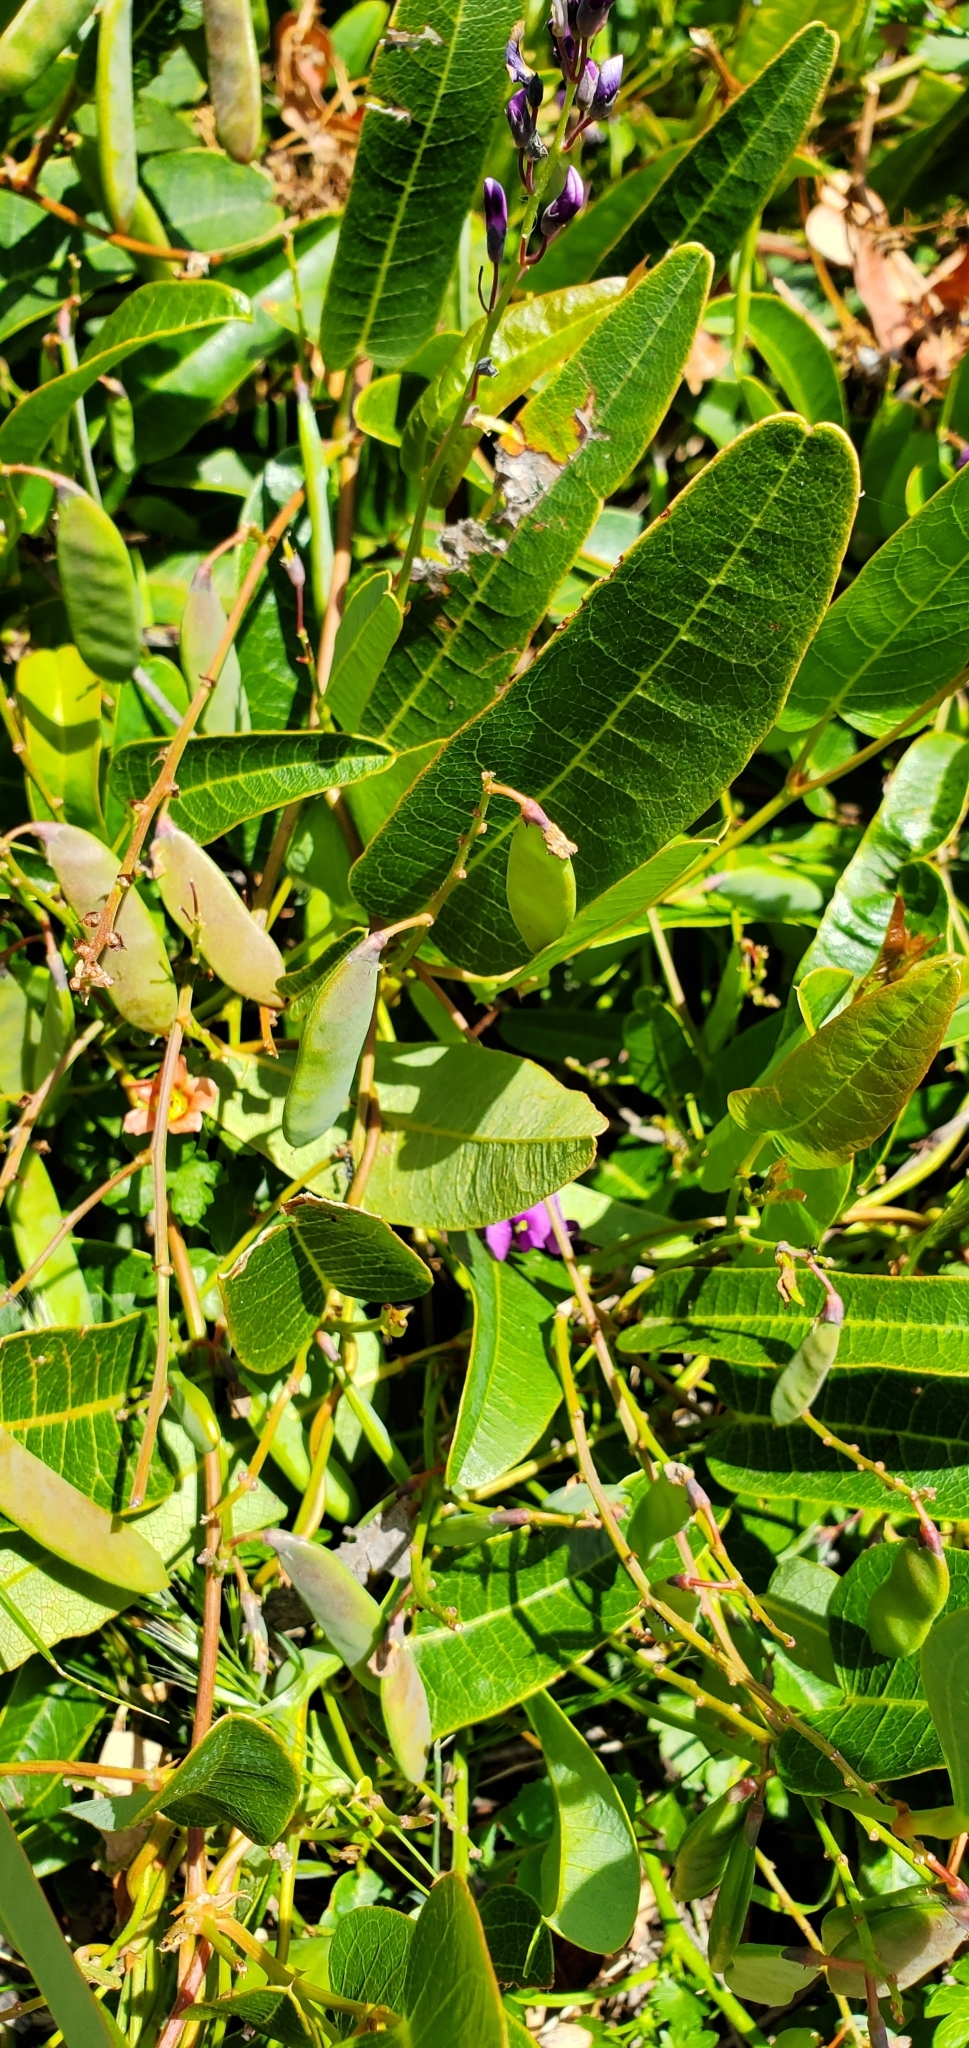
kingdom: Plantae
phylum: Tracheophyta
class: Magnoliopsida
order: Fabales
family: Fabaceae
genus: Hardenbergia
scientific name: Hardenbergia violacea
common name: Coral-pea
